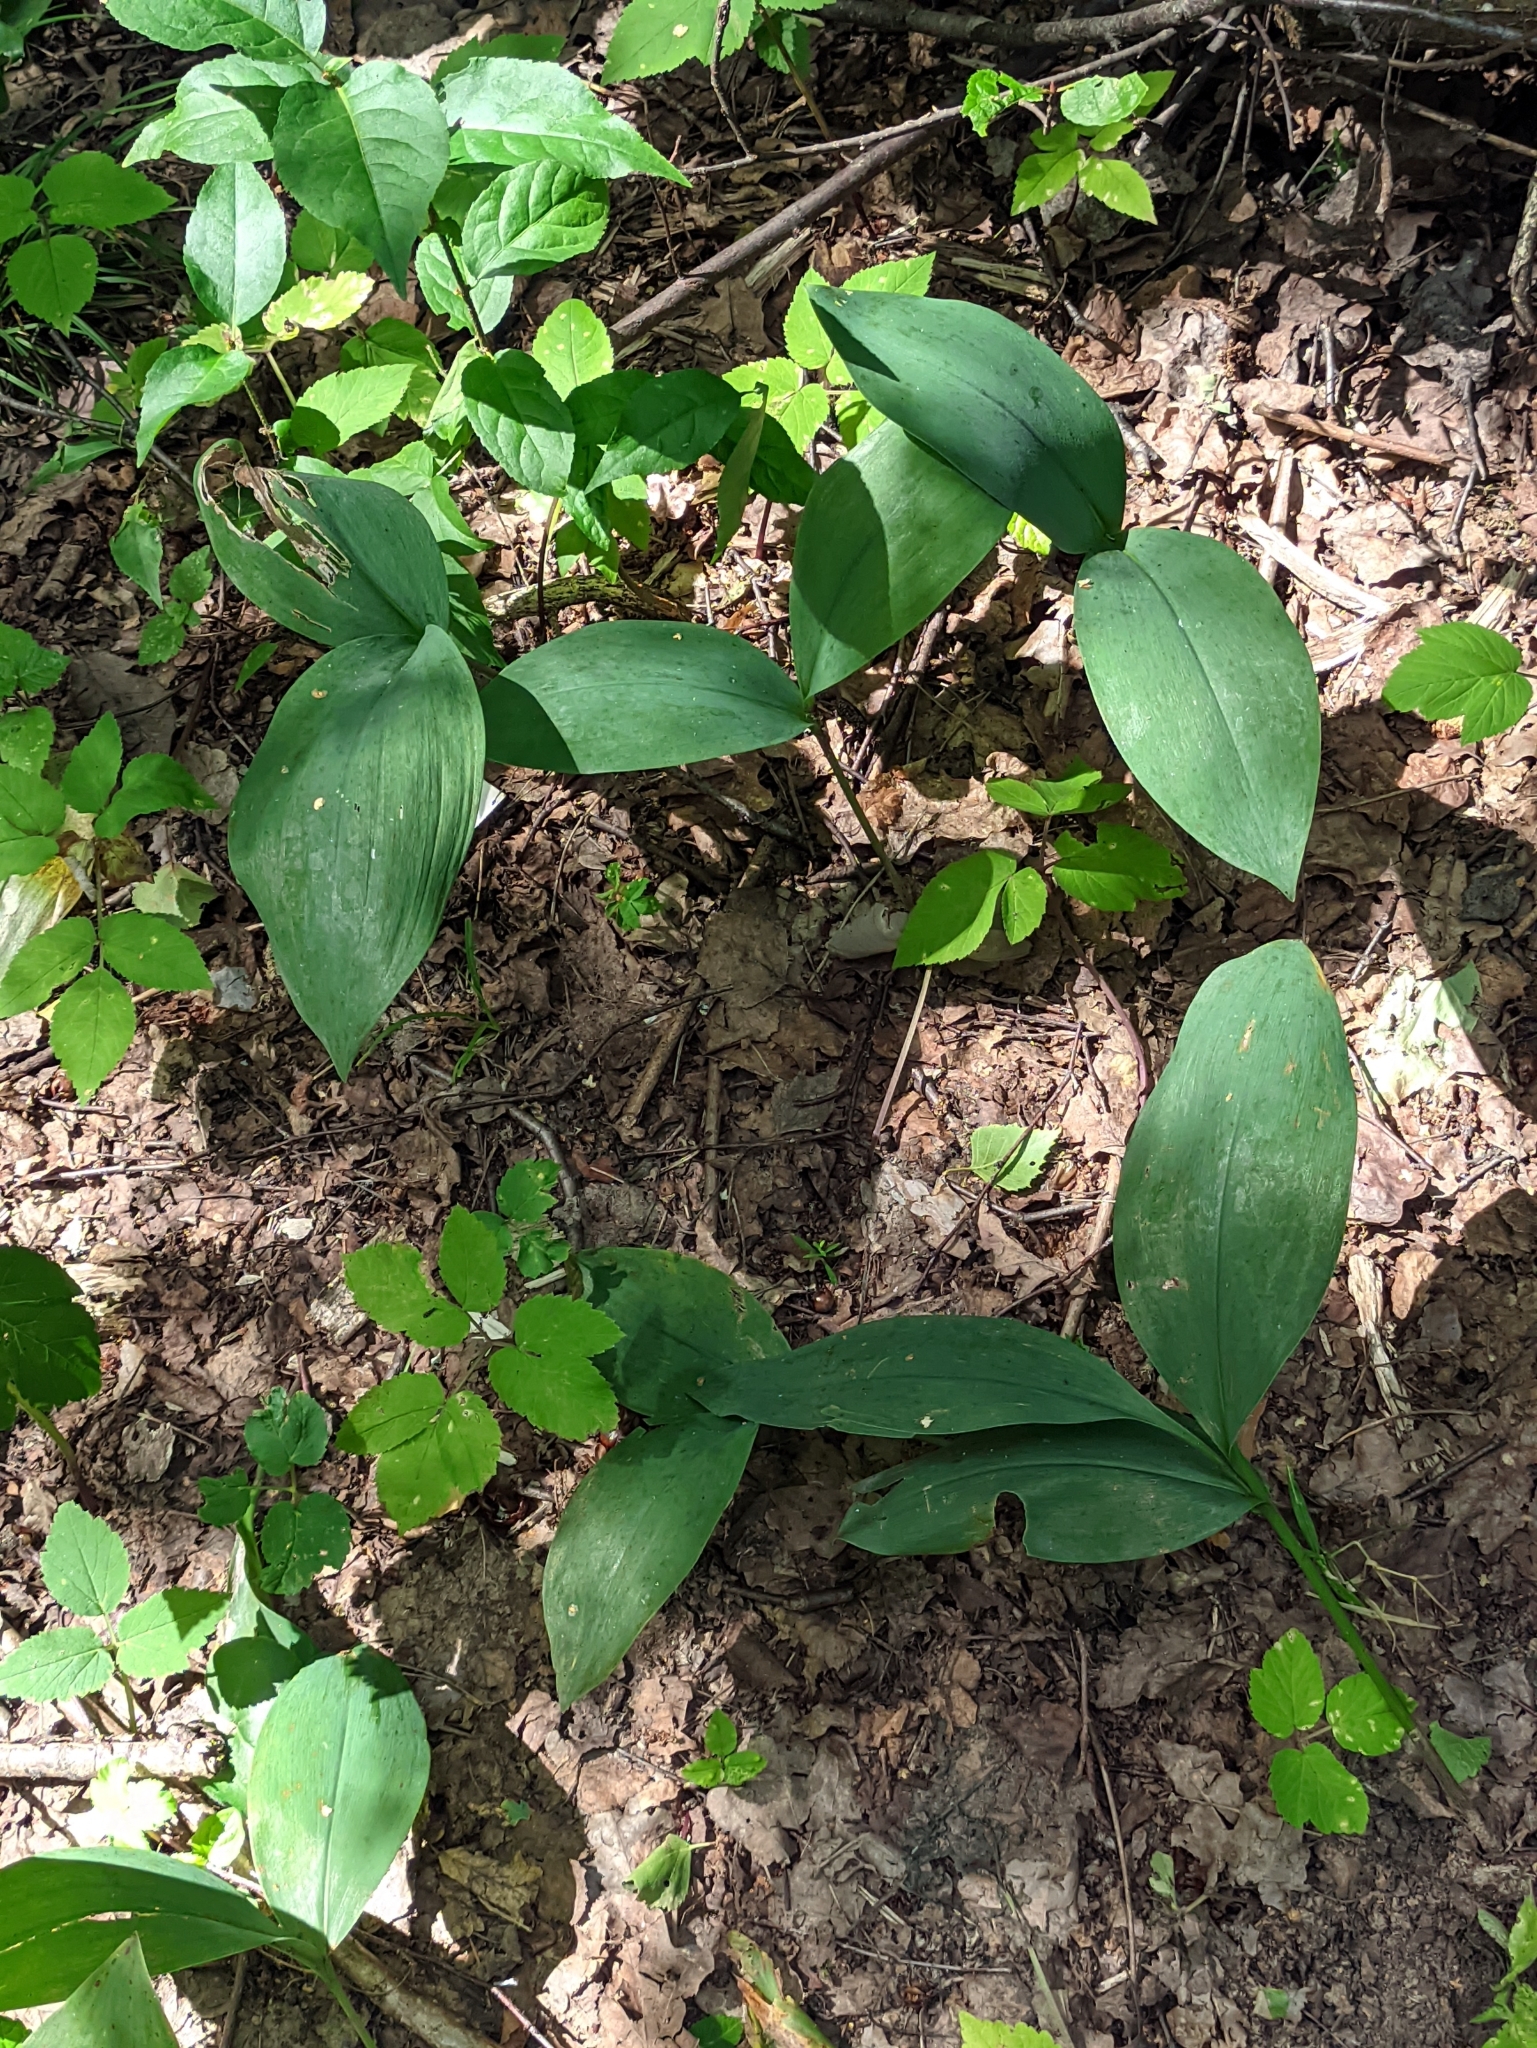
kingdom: Plantae
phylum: Tracheophyta
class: Liliopsida
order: Asparagales
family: Asparagaceae
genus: Convallaria
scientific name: Convallaria majalis
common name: Lily-of-the-valley
